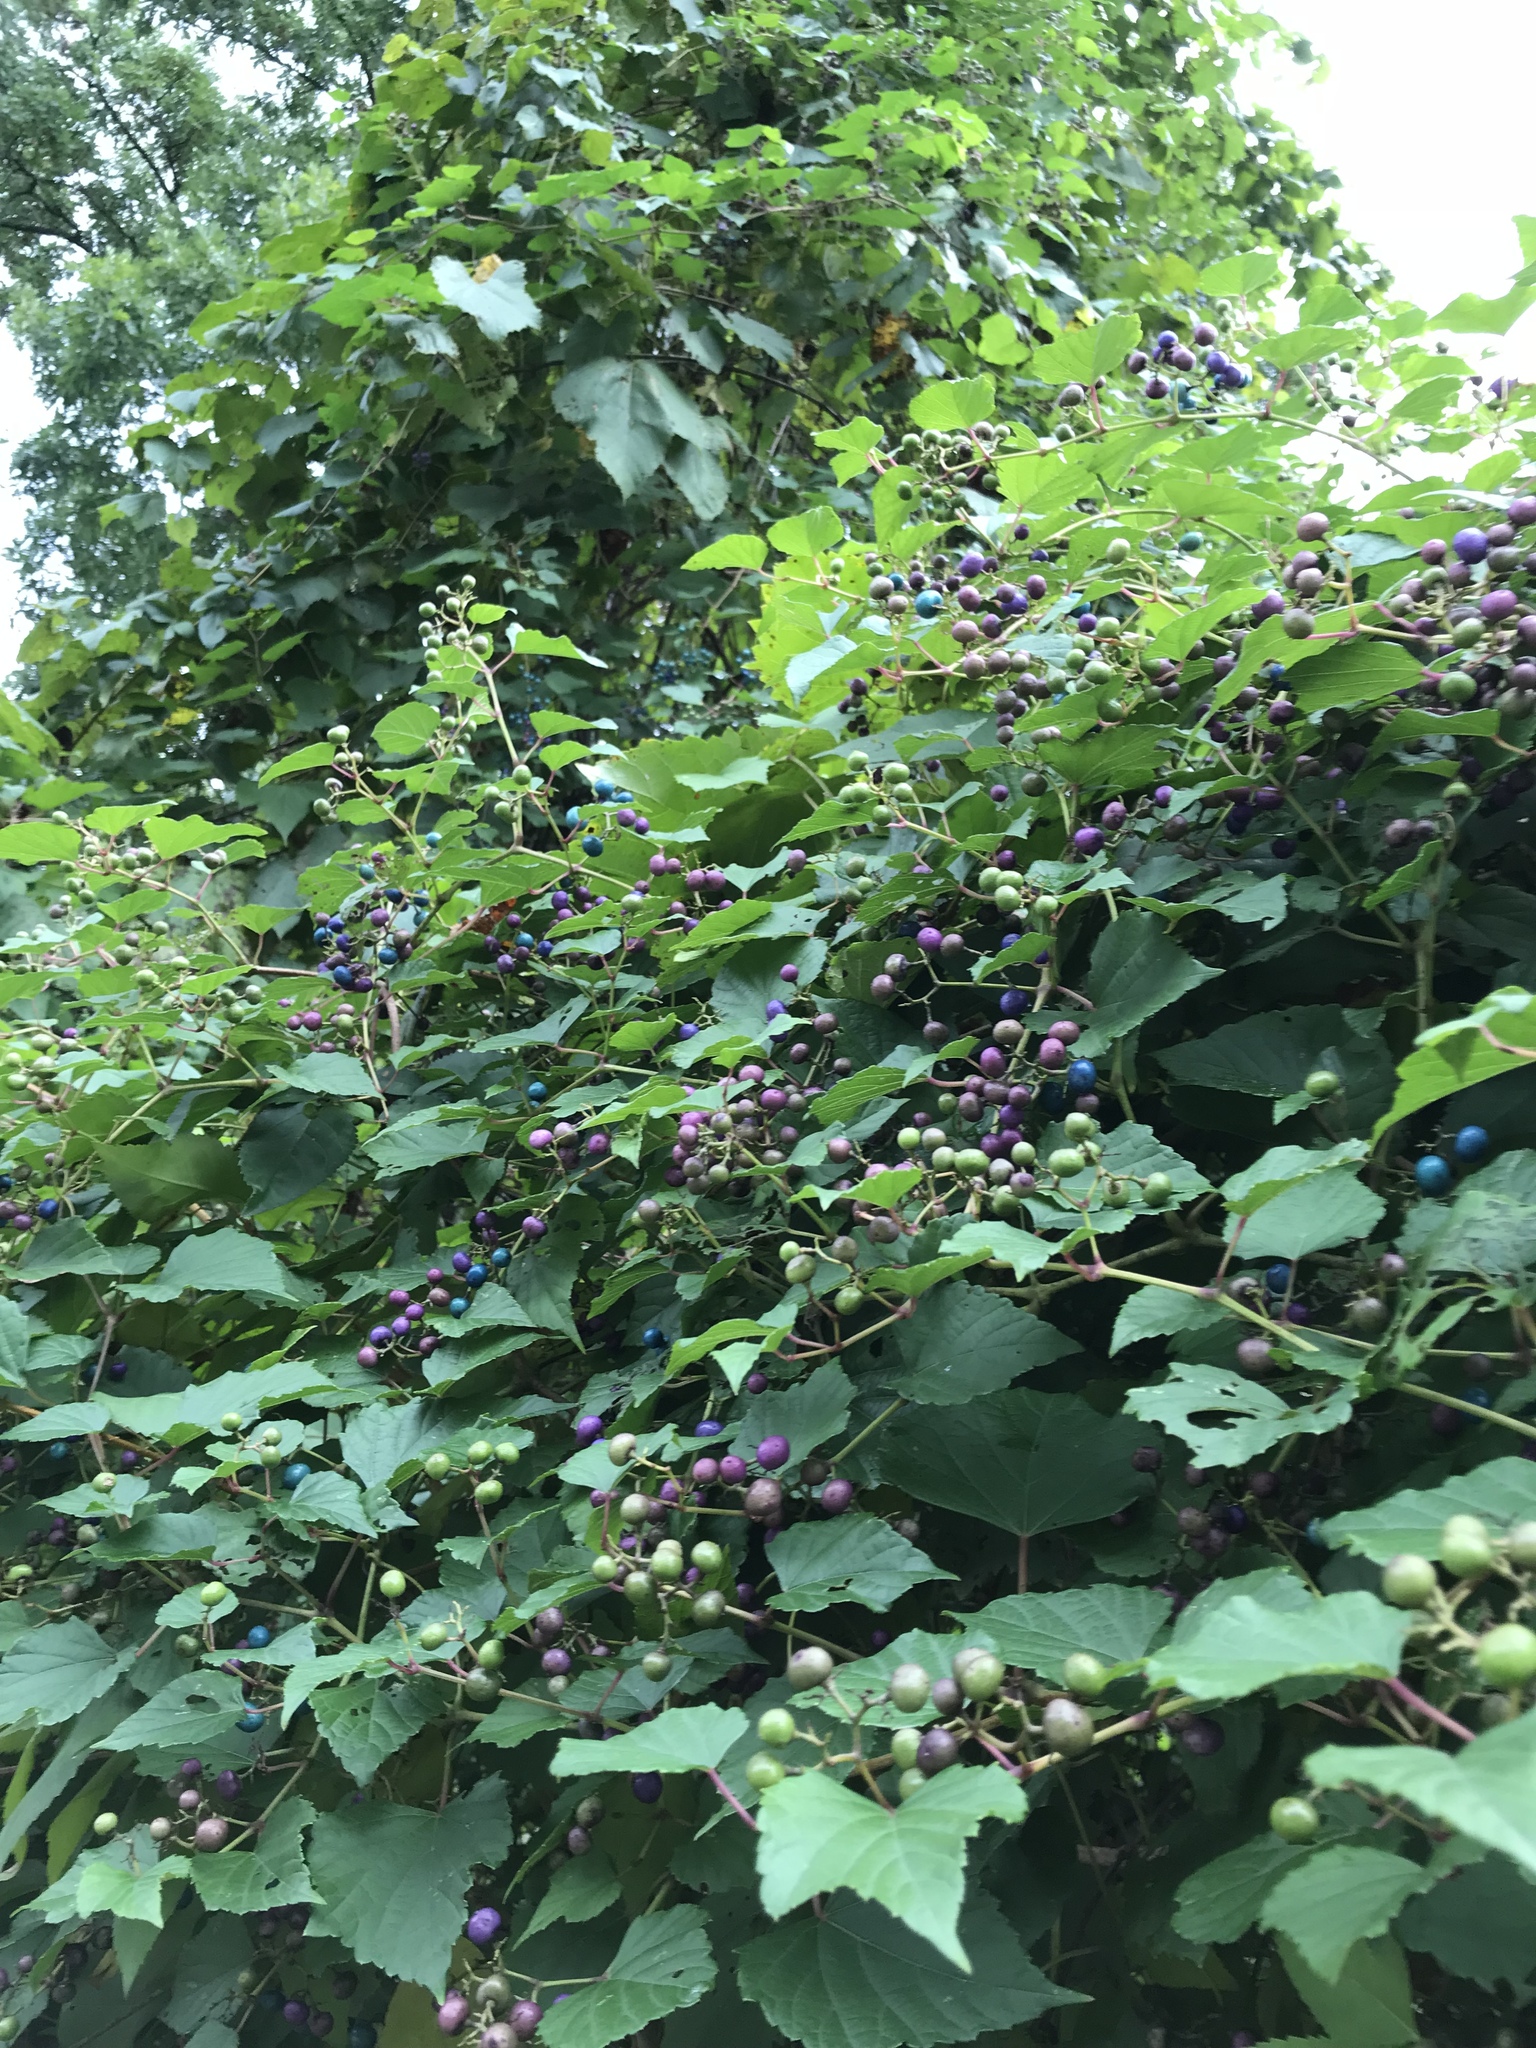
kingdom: Plantae
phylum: Tracheophyta
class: Magnoliopsida
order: Vitales
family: Vitaceae
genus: Ampelopsis
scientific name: Ampelopsis glandulosa
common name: Amur peppervine
